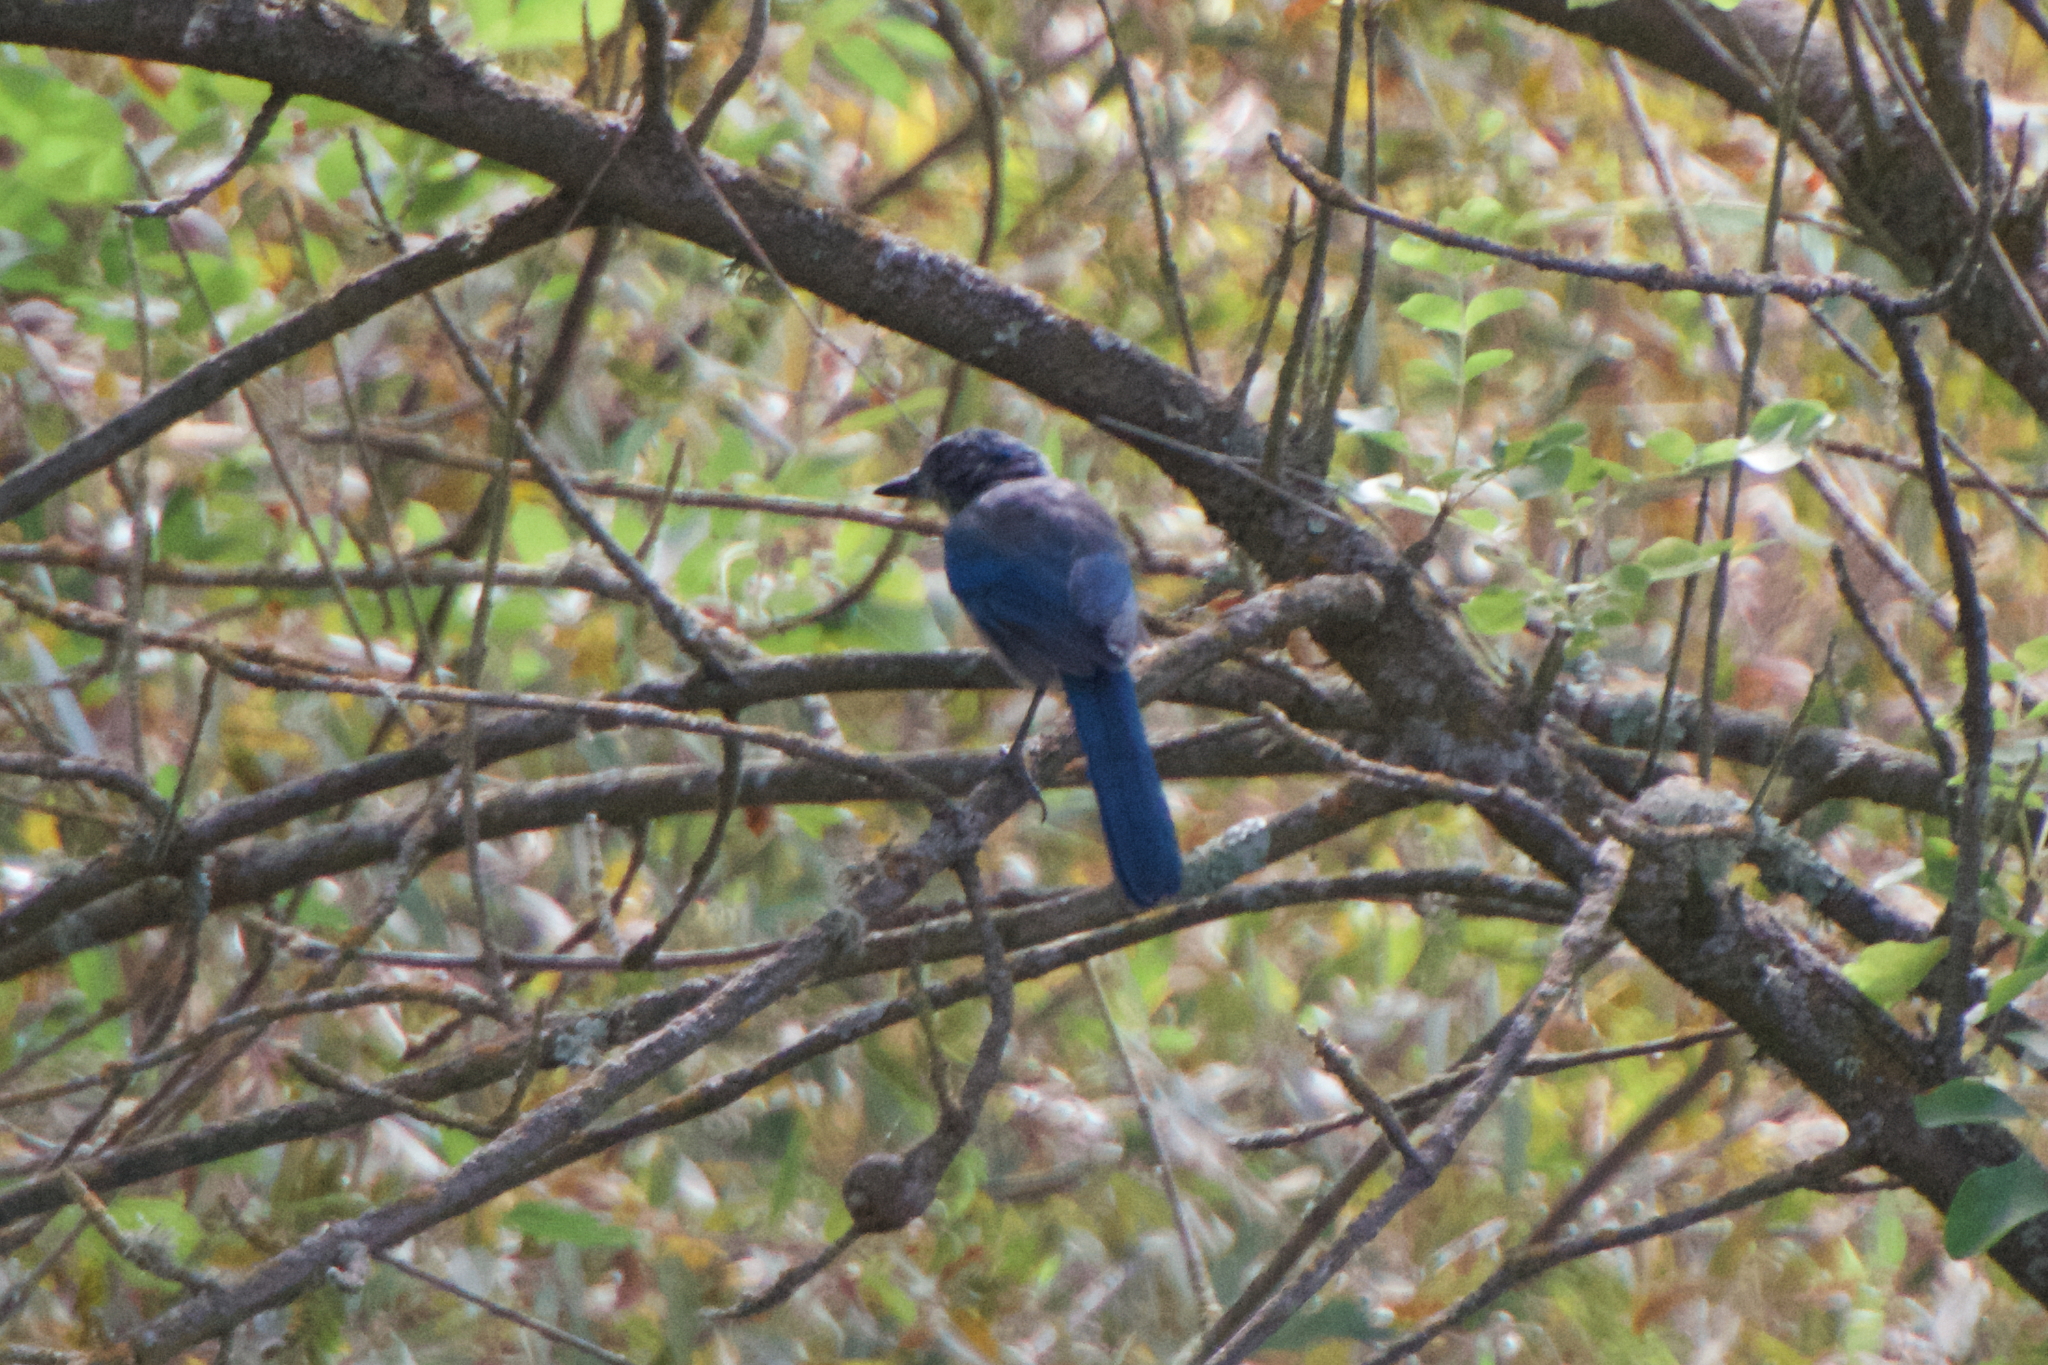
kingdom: Animalia
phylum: Chordata
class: Aves
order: Passeriformes
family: Corvidae
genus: Aphelocoma
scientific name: Aphelocoma californica
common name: California scrub-jay
